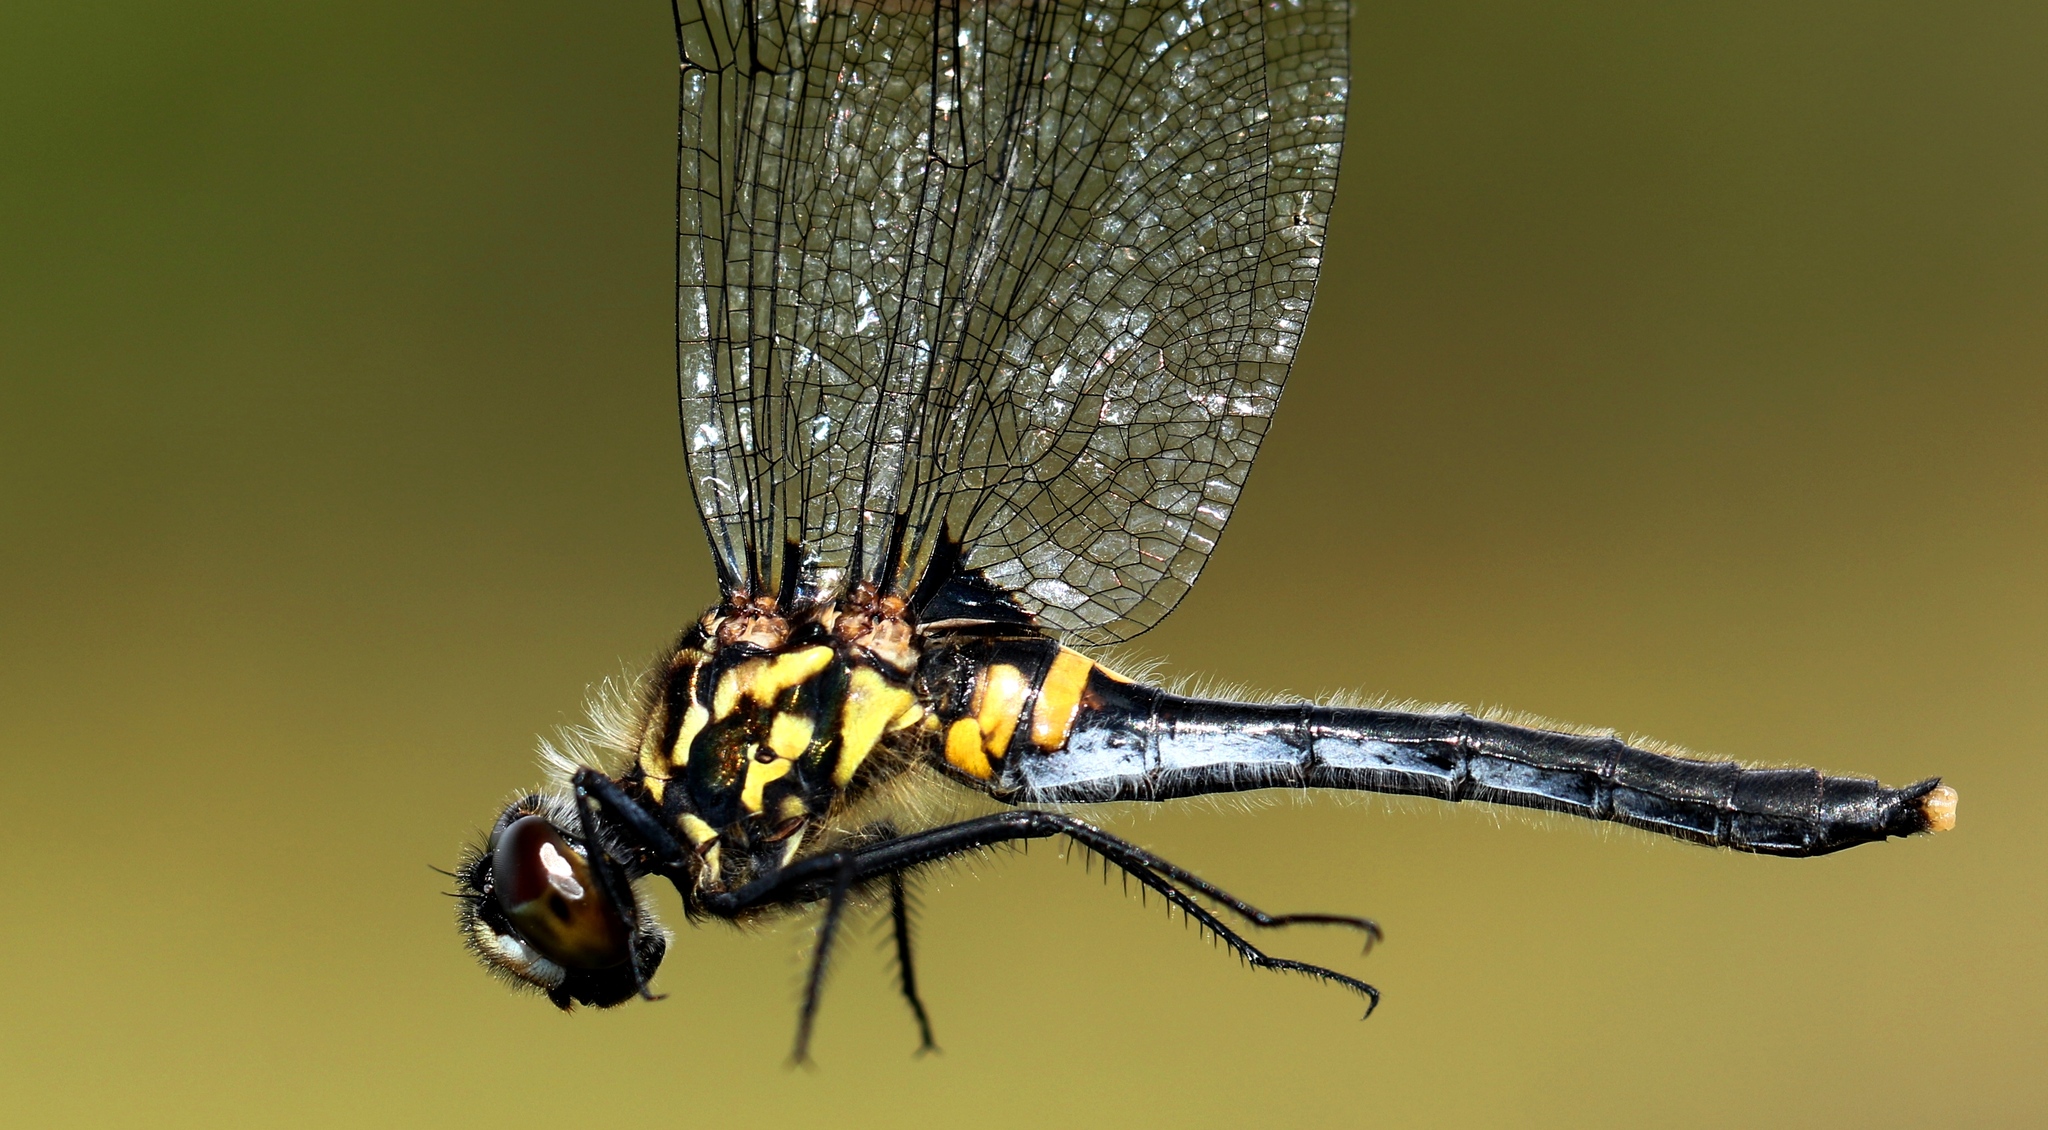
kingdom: Animalia
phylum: Arthropoda
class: Insecta
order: Odonata
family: Libellulidae
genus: Leucorrhinia
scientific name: Leucorrhinia glacialis
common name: Crimson-ringed whiteface
